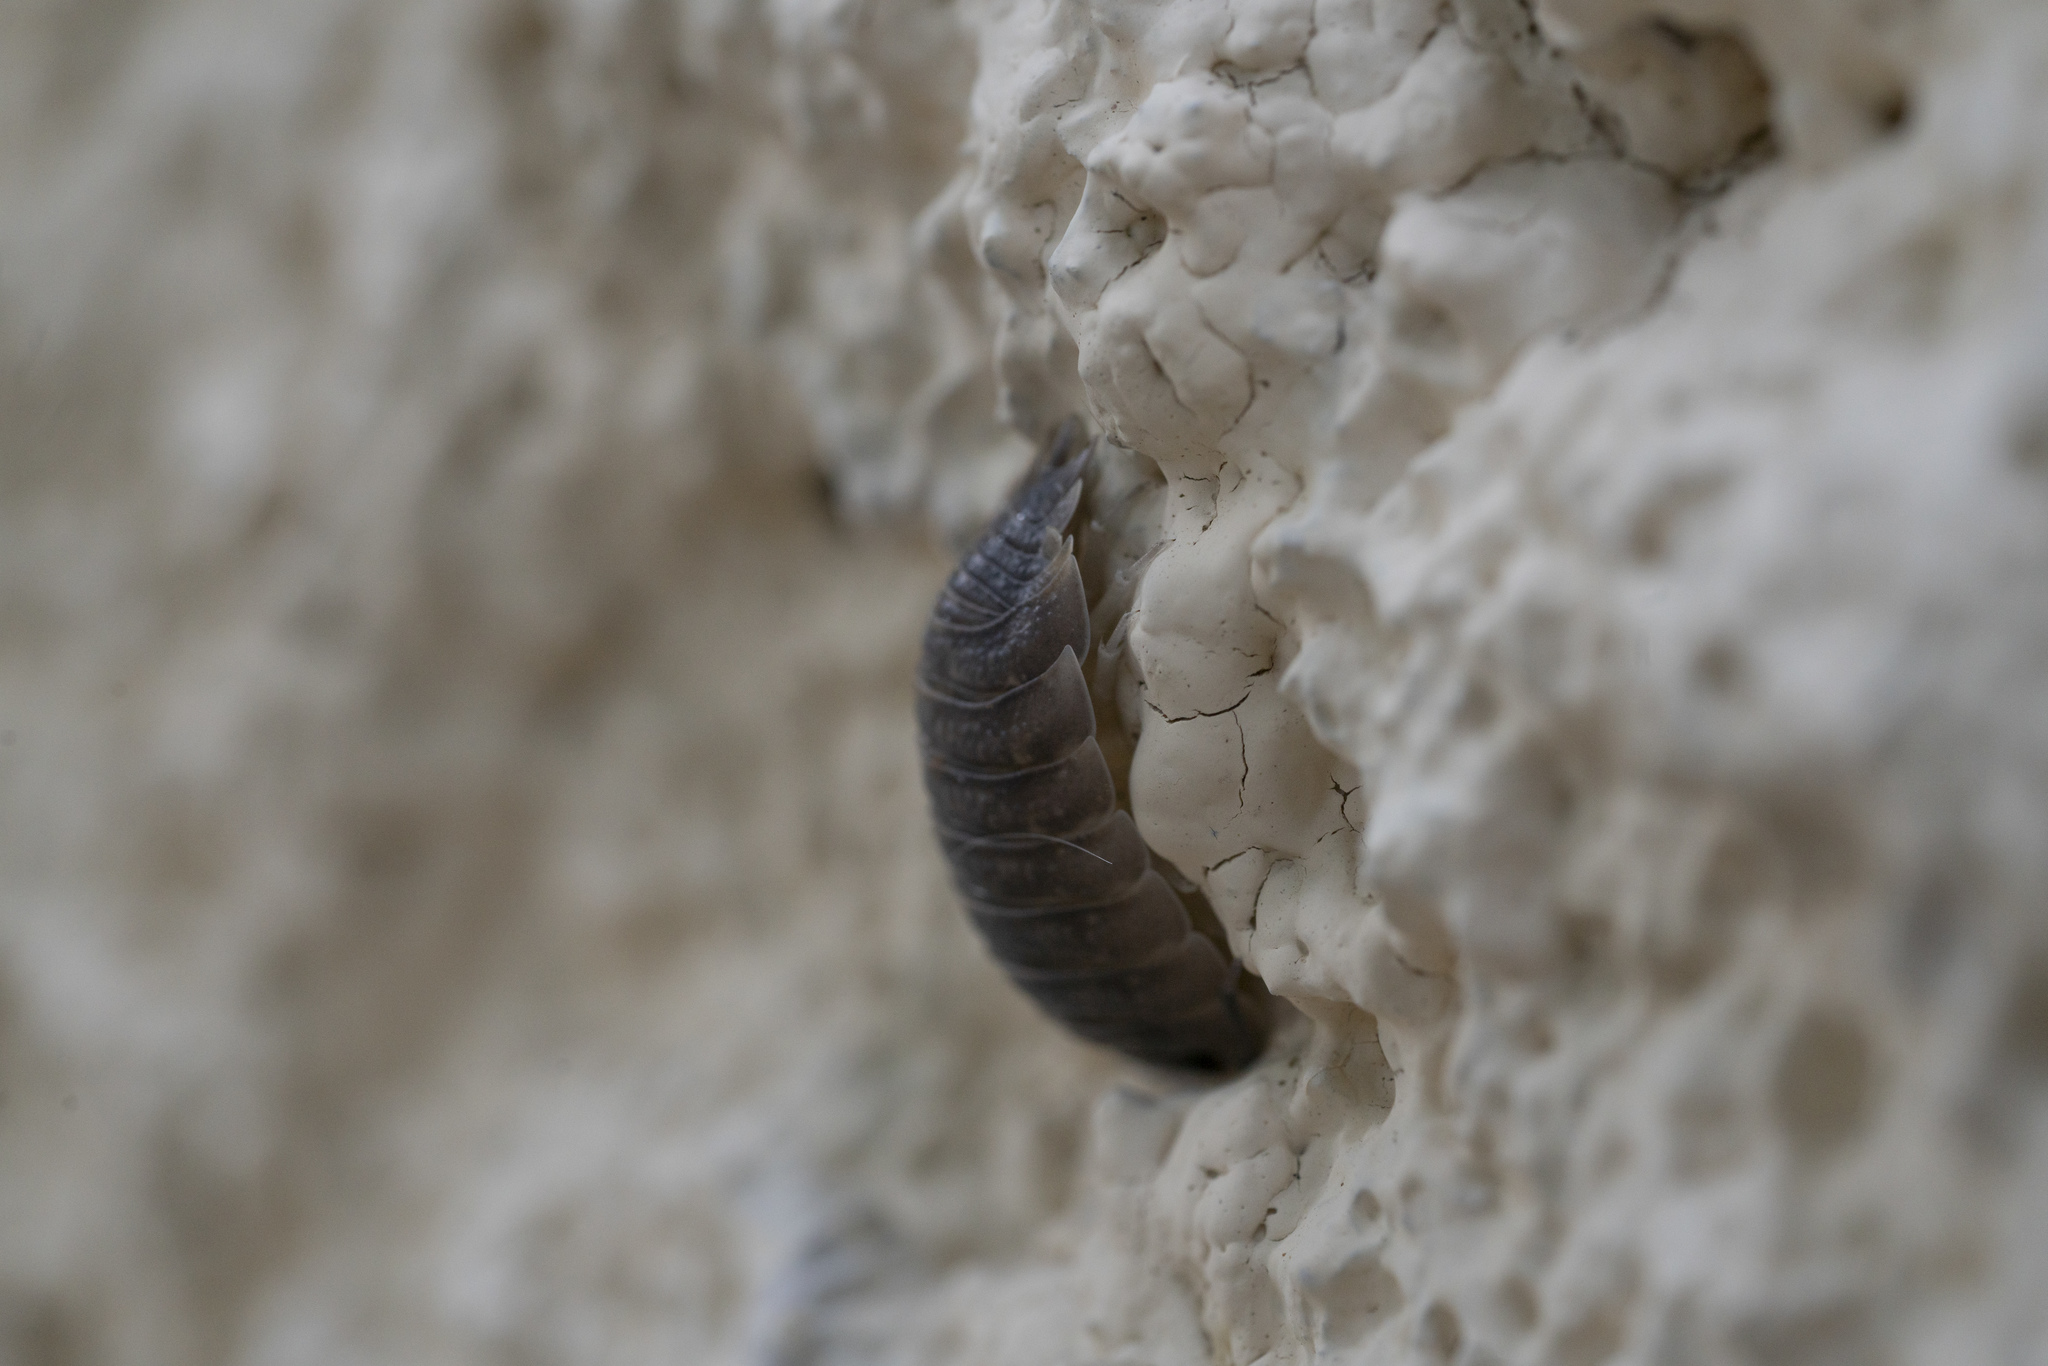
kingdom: Animalia
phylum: Arthropoda
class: Malacostraca
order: Isopoda
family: Porcellionidae
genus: Porcellio
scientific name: Porcellio obsoletus
